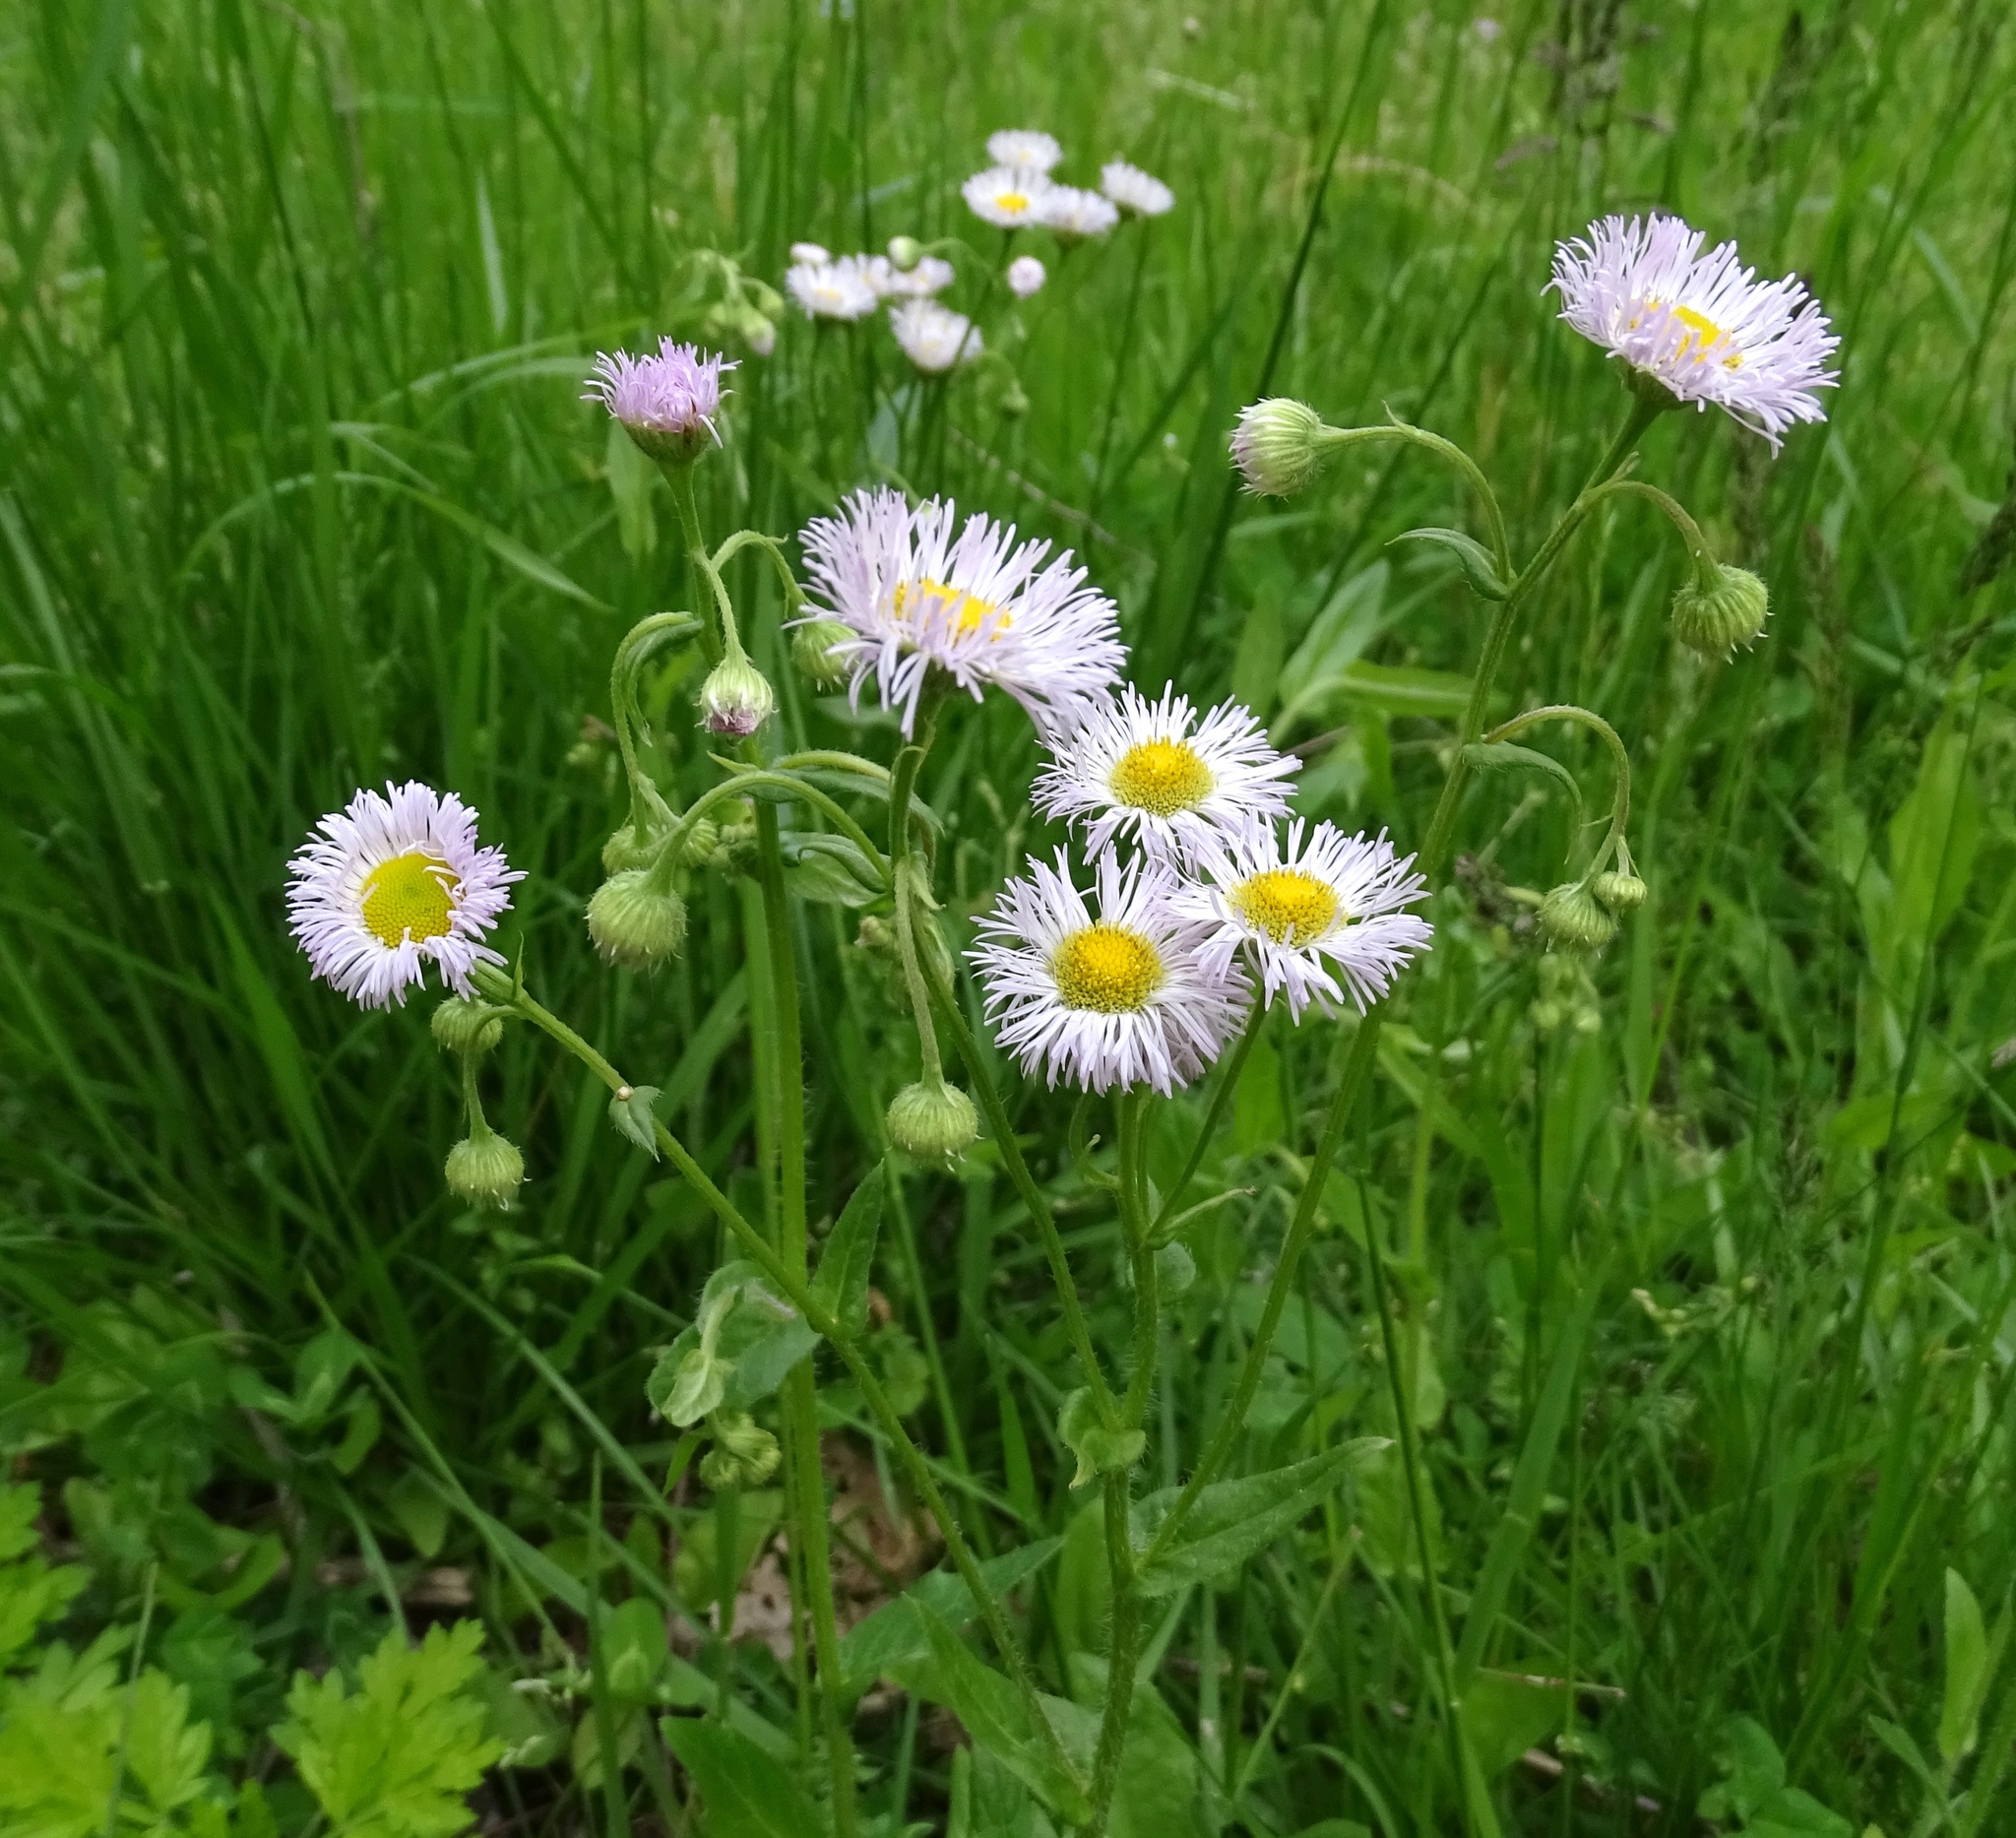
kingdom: Plantae
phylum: Tracheophyta
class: Magnoliopsida
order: Asterales
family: Asteraceae
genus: Erigeron
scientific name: Erigeron philadelphicus
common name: Robin's-plantain
